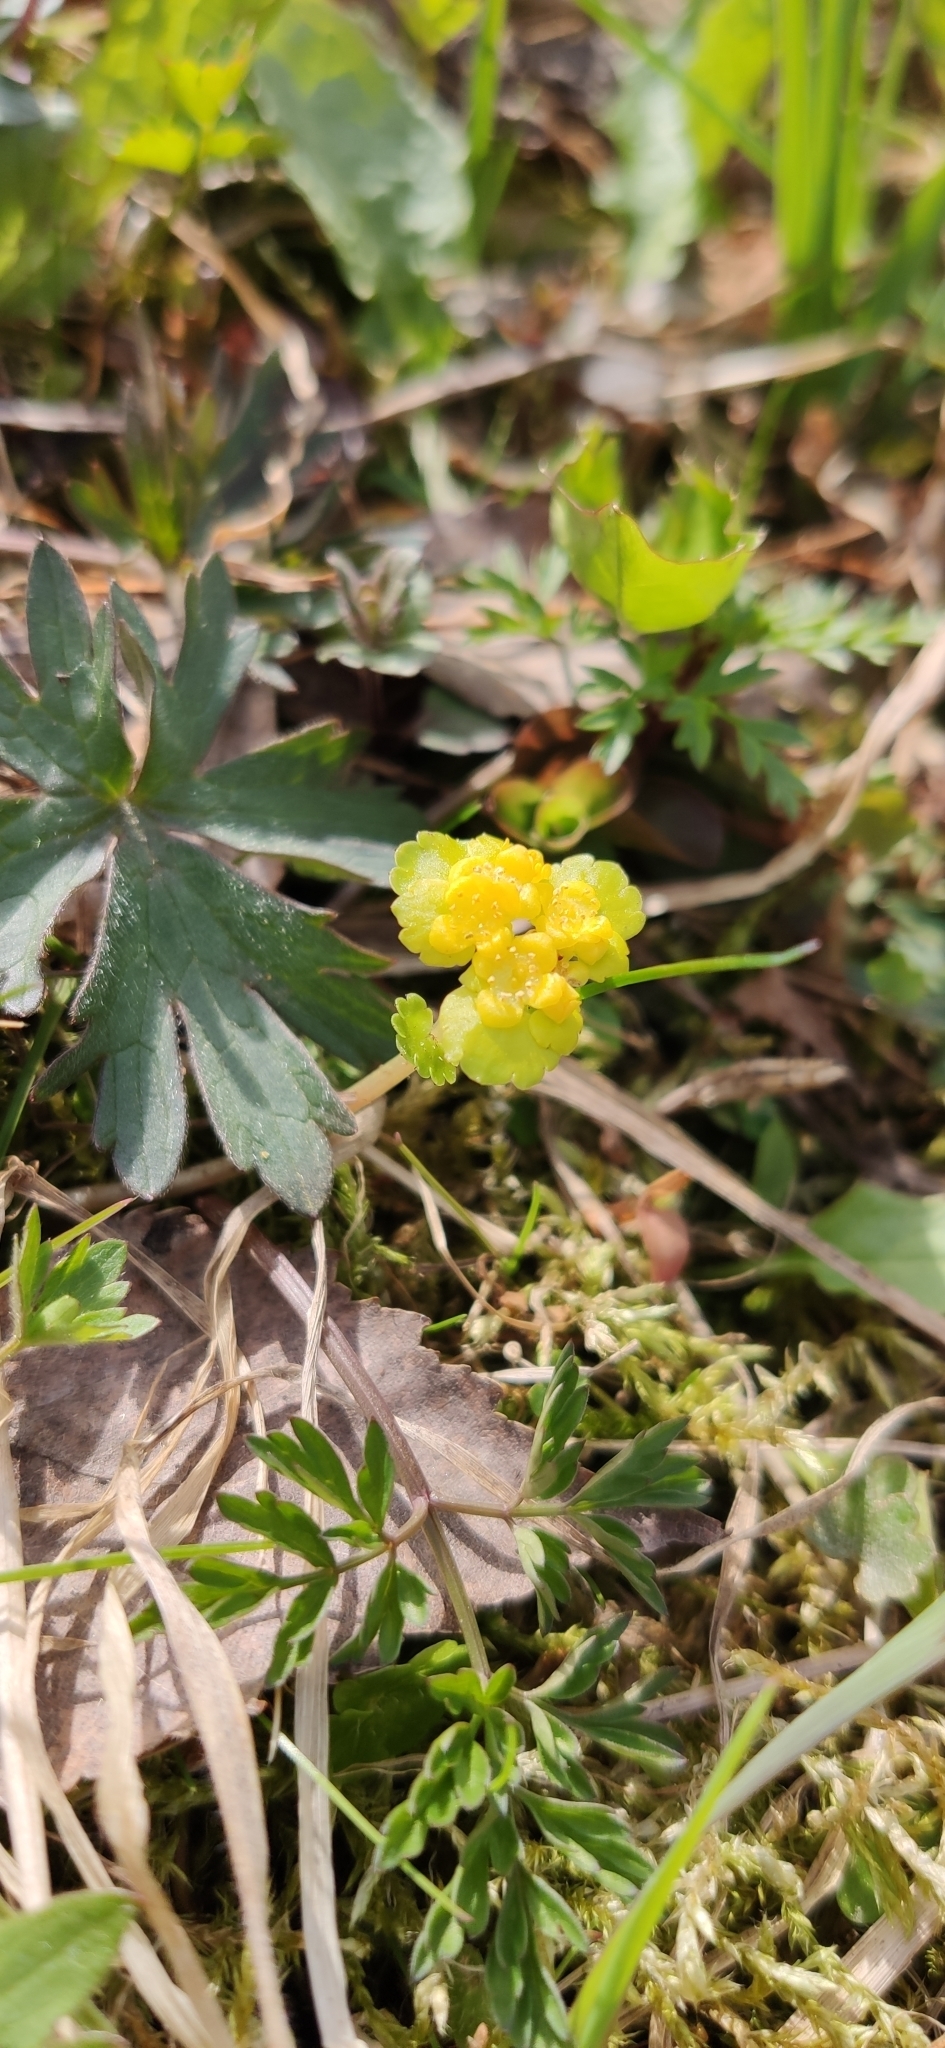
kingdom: Plantae
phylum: Tracheophyta
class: Magnoliopsida
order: Saxifragales
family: Saxifragaceae
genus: Chrysosplenium
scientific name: Chrysosplenium alternifolium
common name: Alternate-leaved golden-saxifrage
